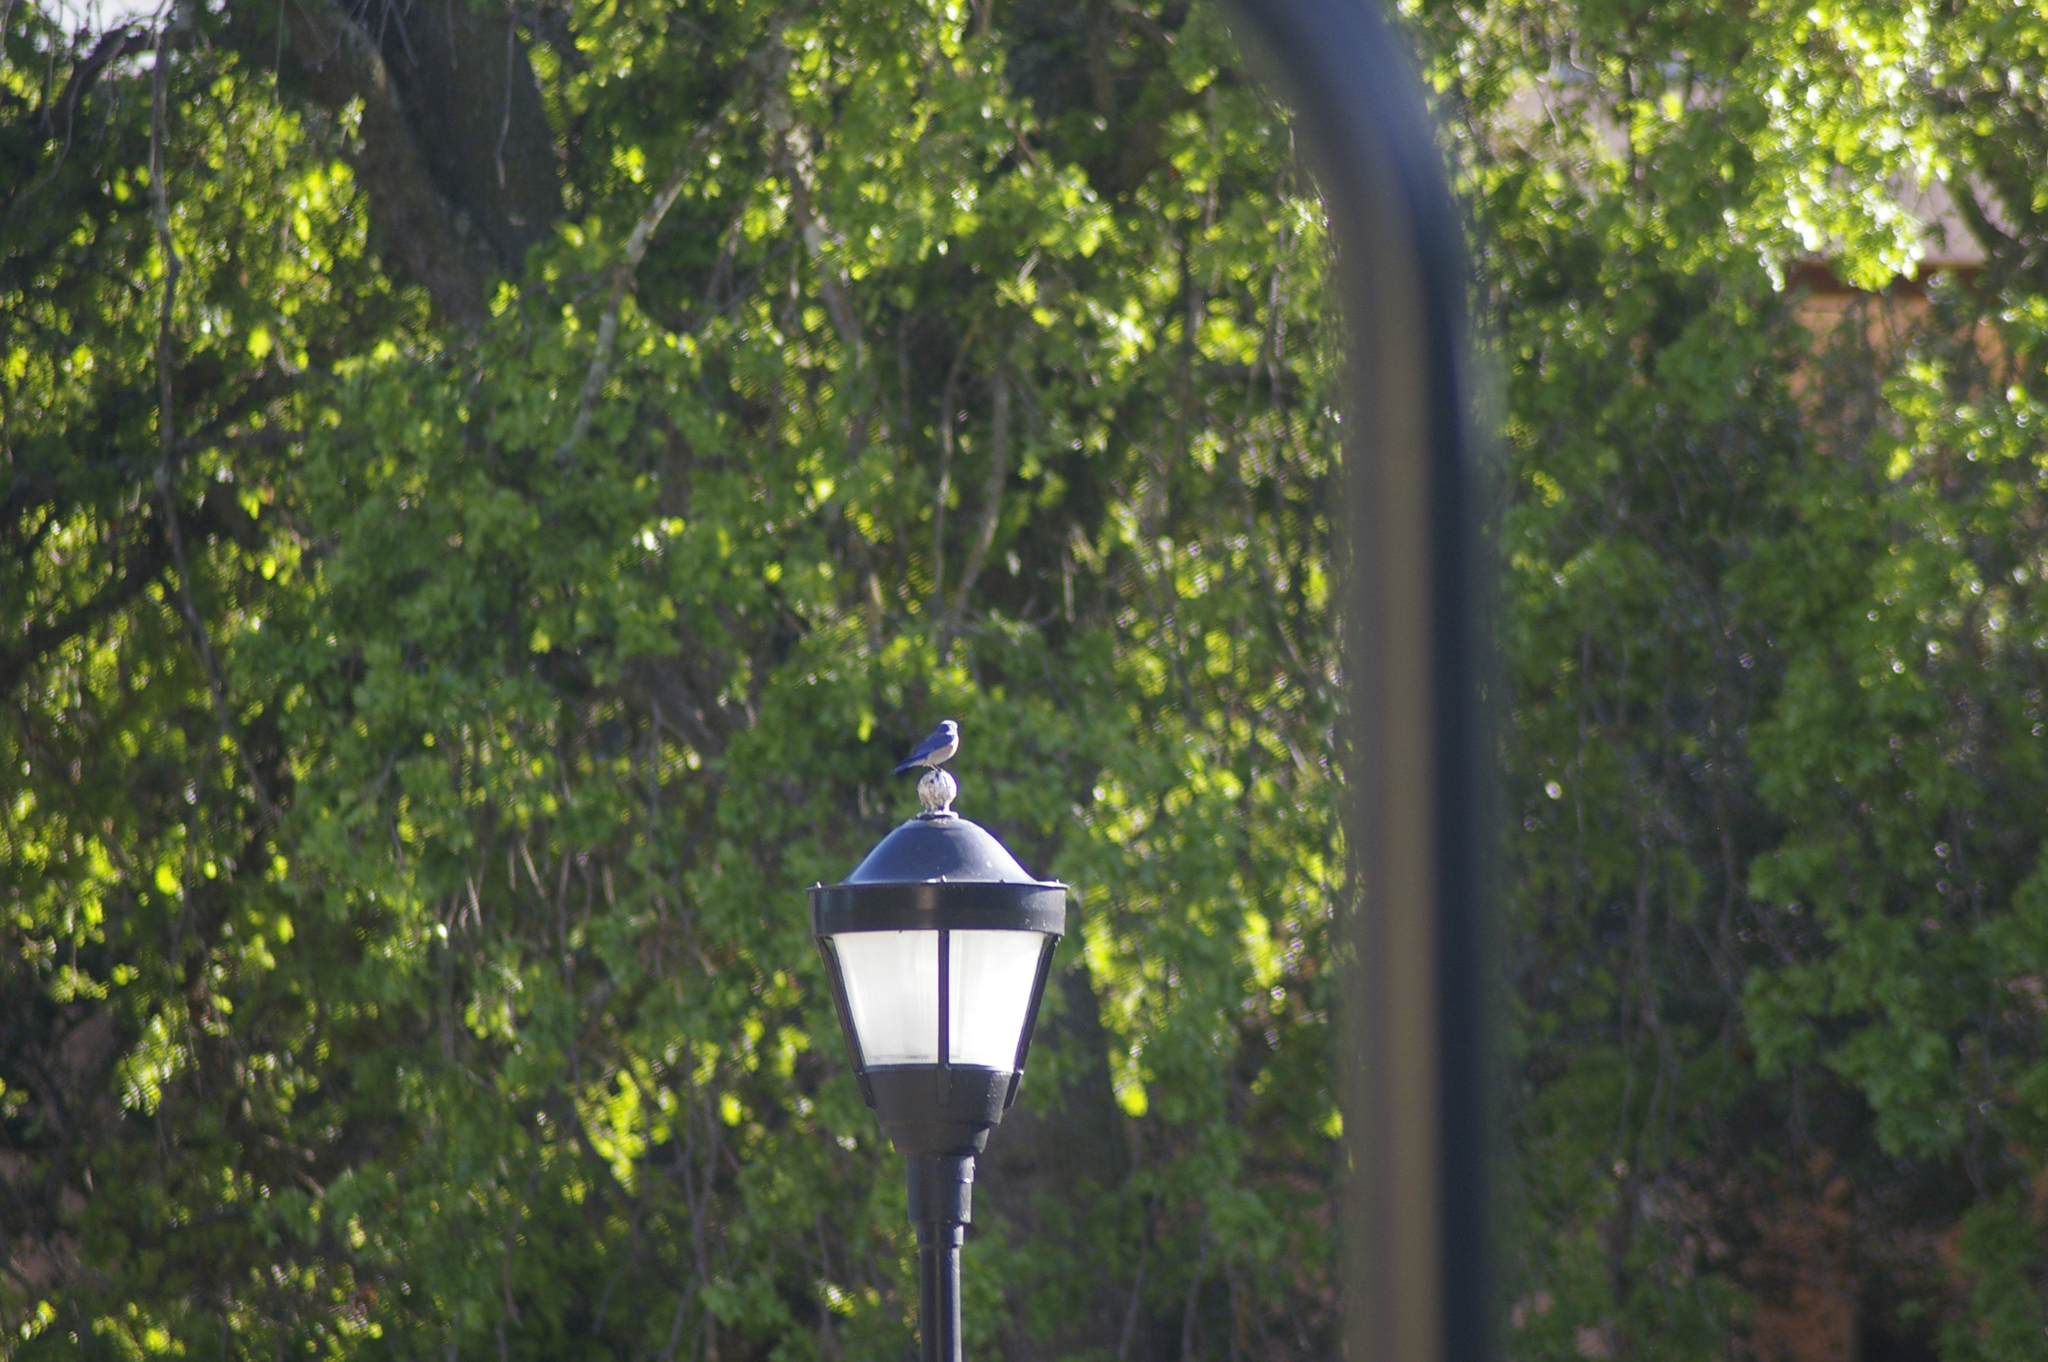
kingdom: Animalia
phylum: Chordata
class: Aves
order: Passeriformes
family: Turdidae
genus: Sialia
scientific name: Sialia mexicana
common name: Western bluebird
